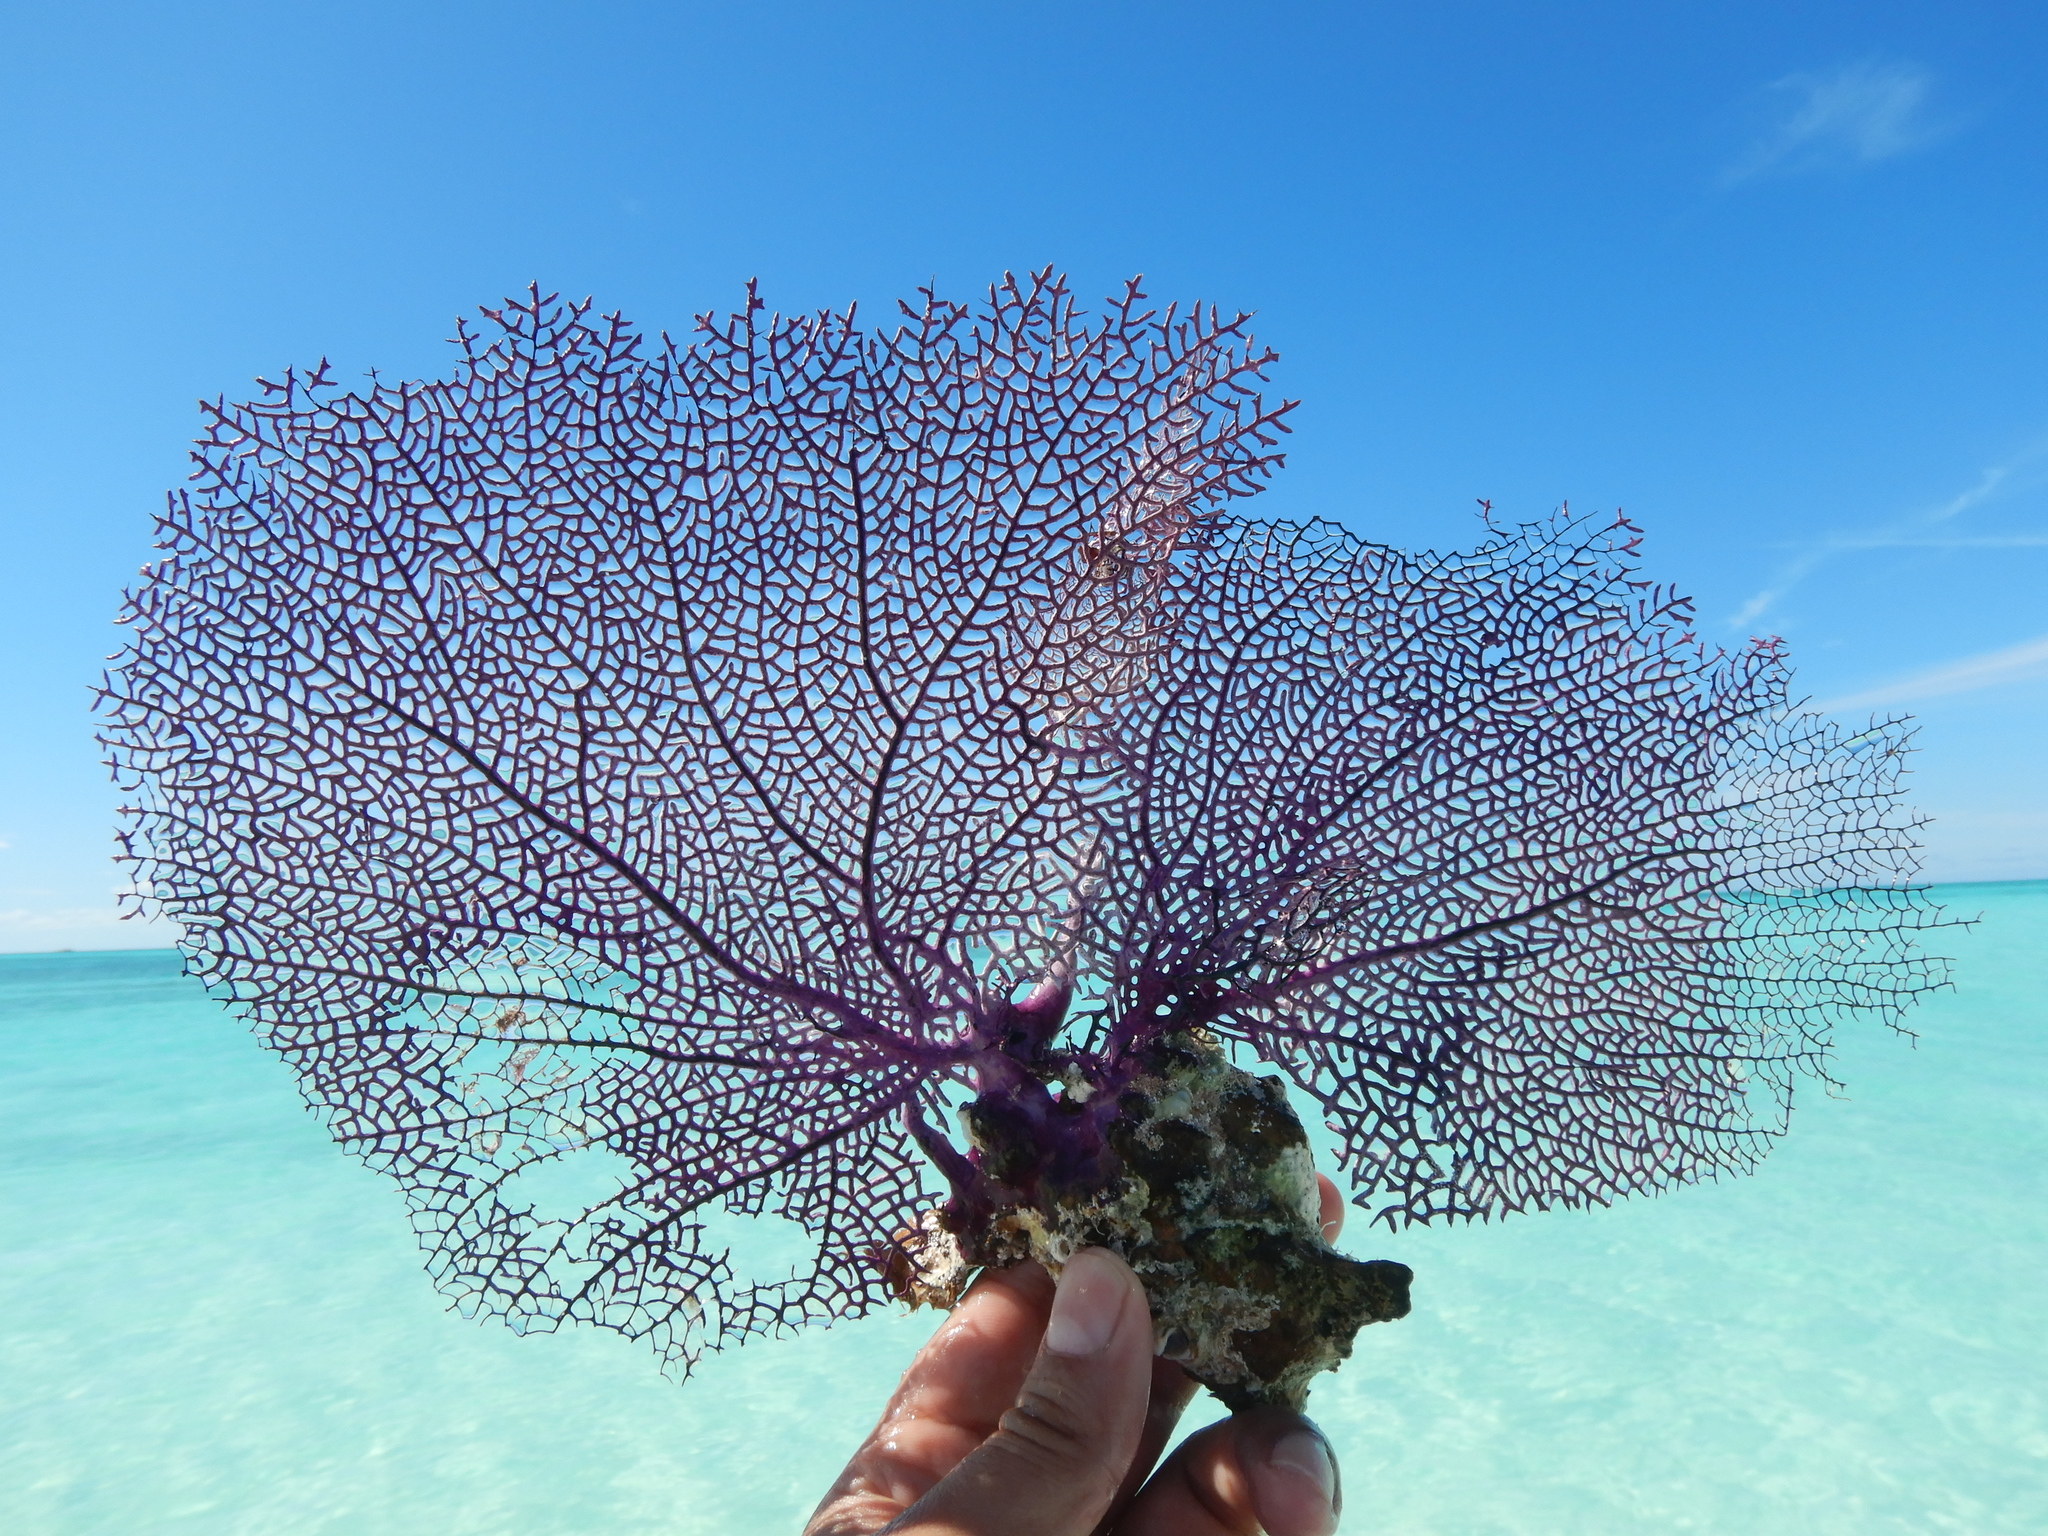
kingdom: Animalia
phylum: Cnidaria
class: Anthozoa
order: Malacalcyonacea
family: Gorgoniidae
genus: Gorgonia
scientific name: Gorgonia ventalina
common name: Common sea fan
